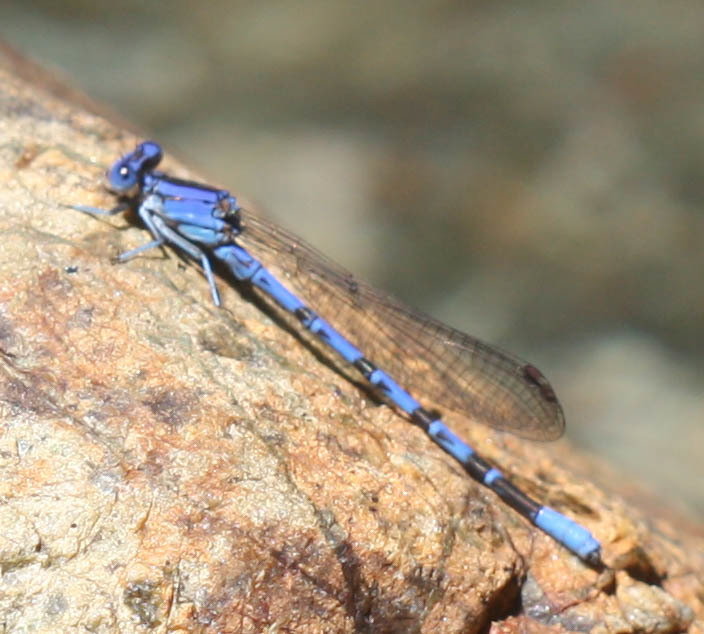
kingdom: Animalia
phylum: Arthropoda
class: Insecta
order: Odonata
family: Coenagrionidae
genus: Argia
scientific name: Argia vivida
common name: Vivid dancer
